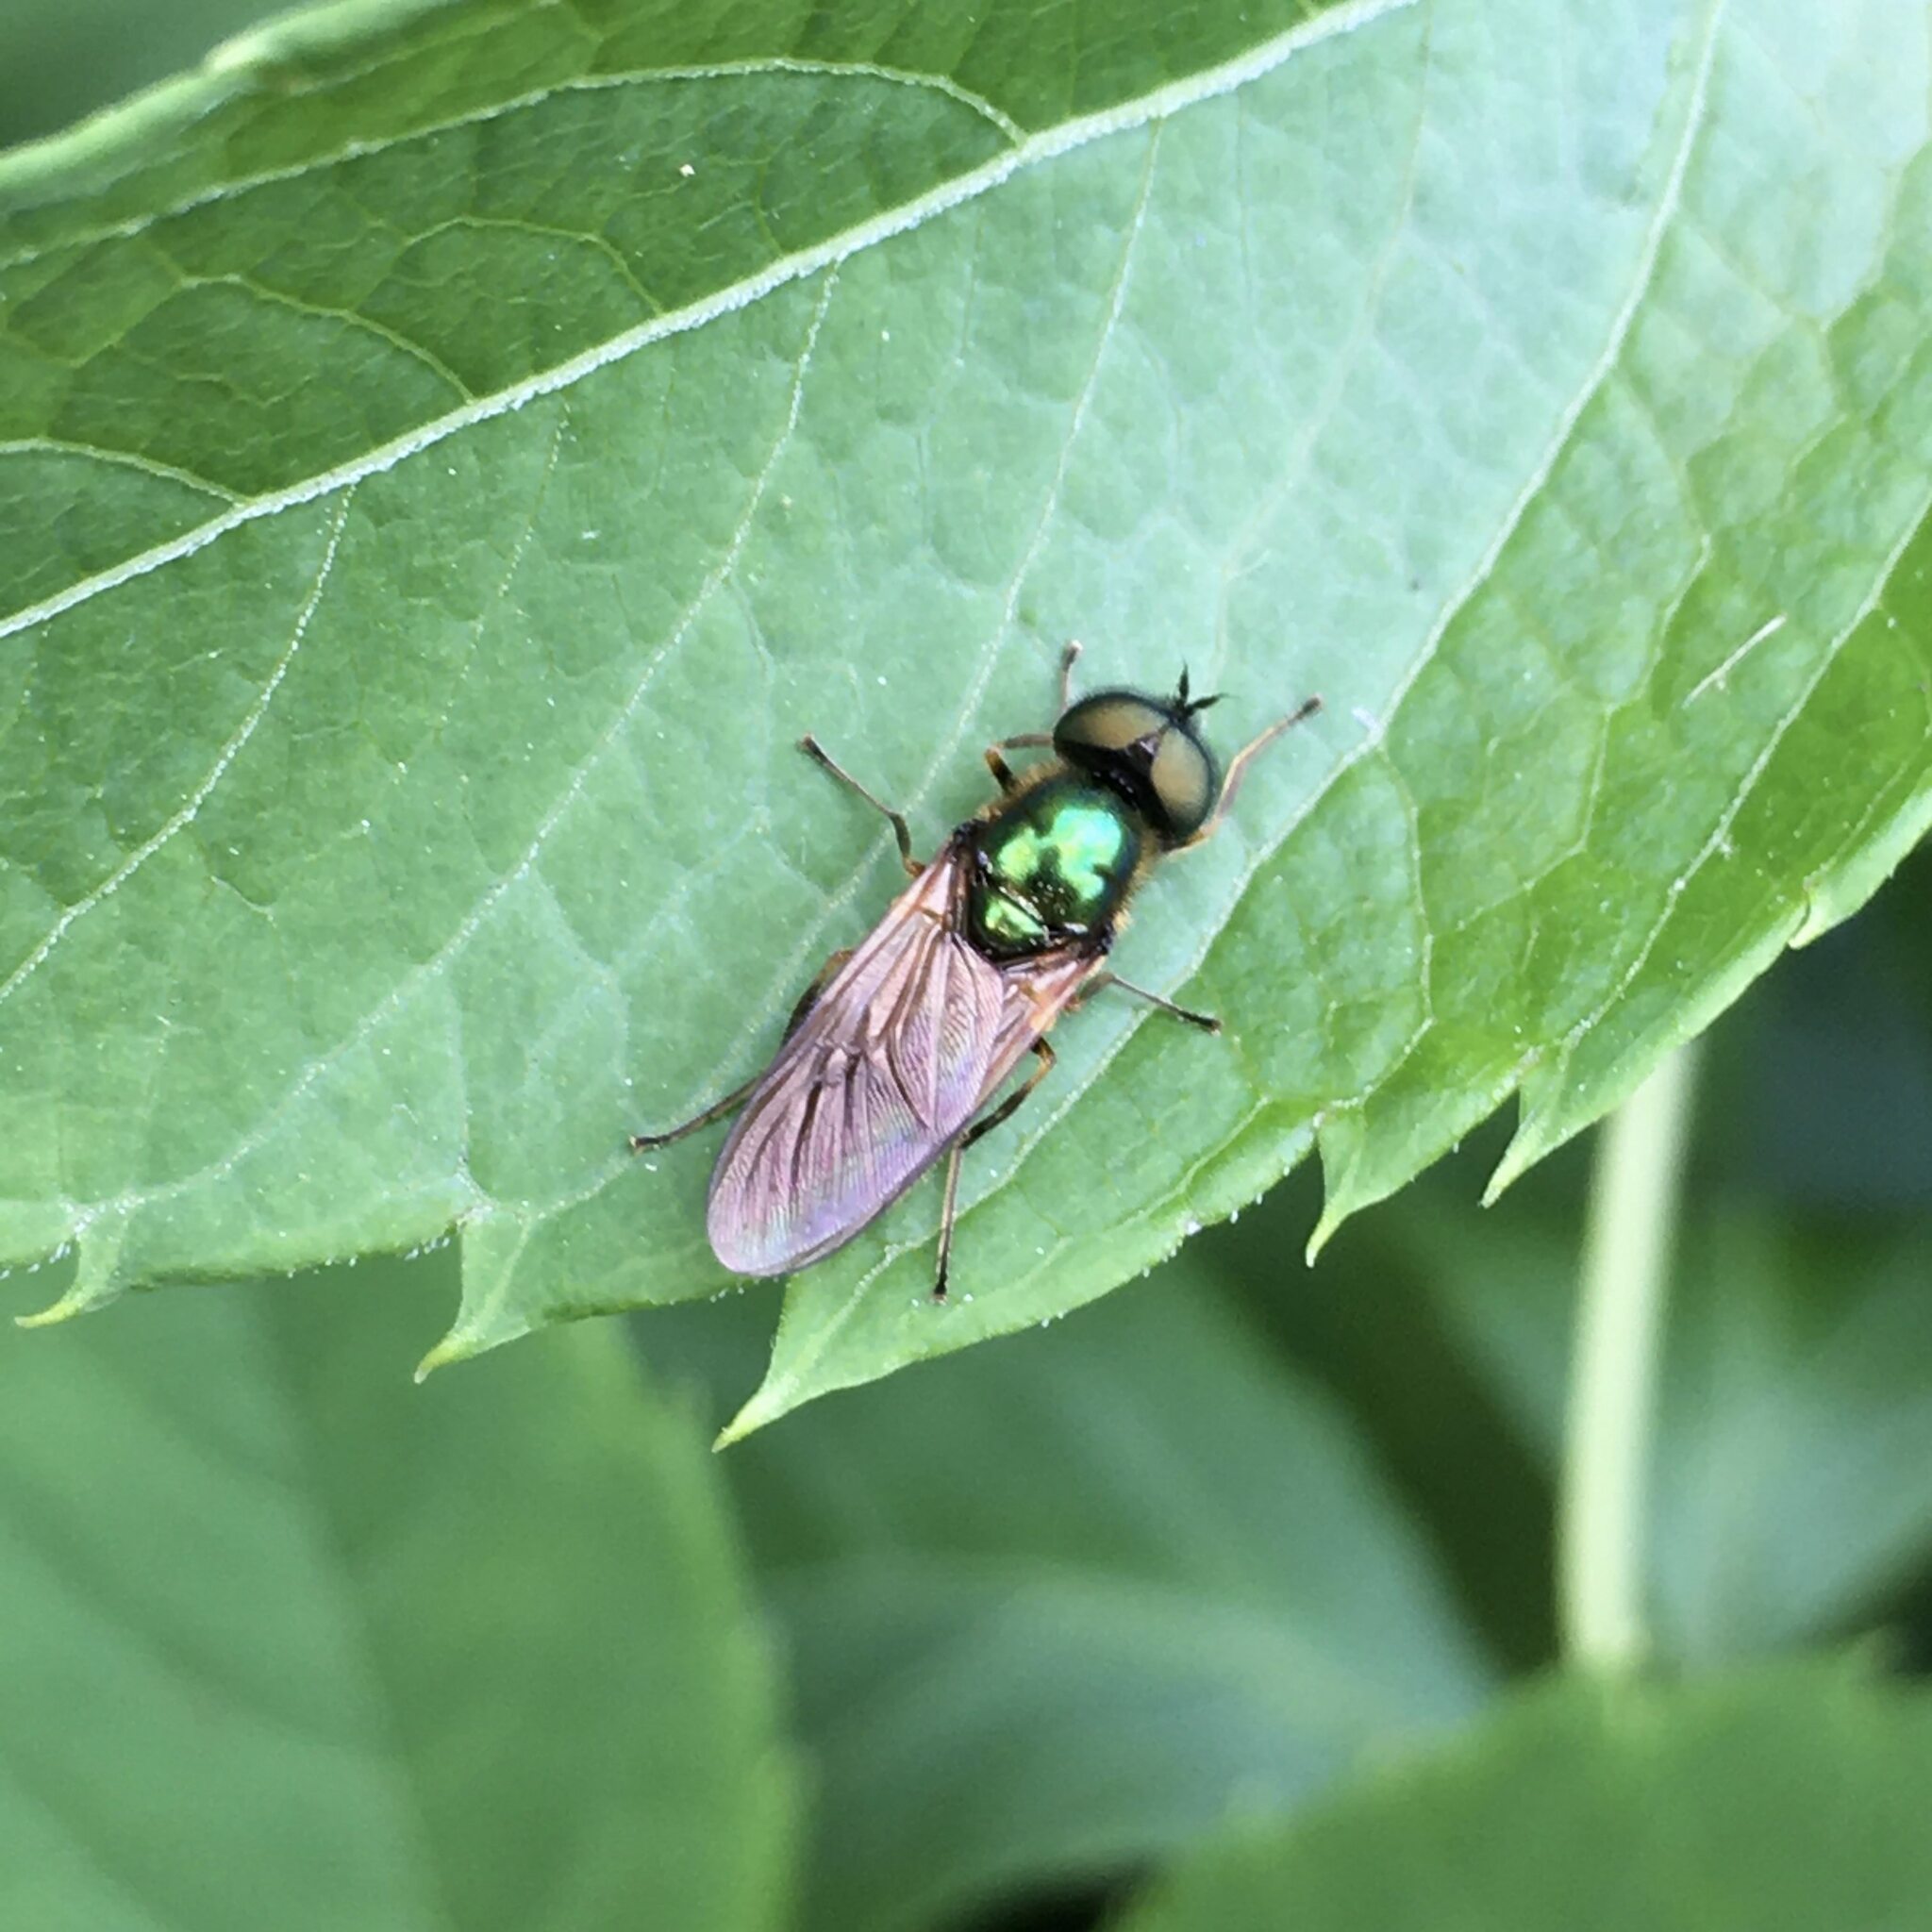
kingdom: Animalia
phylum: Arthropoda
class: Insecta
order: Diptera
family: Stratiomyidae
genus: Chloromyia
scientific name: Chloromyia formosa
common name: Soldier fly
